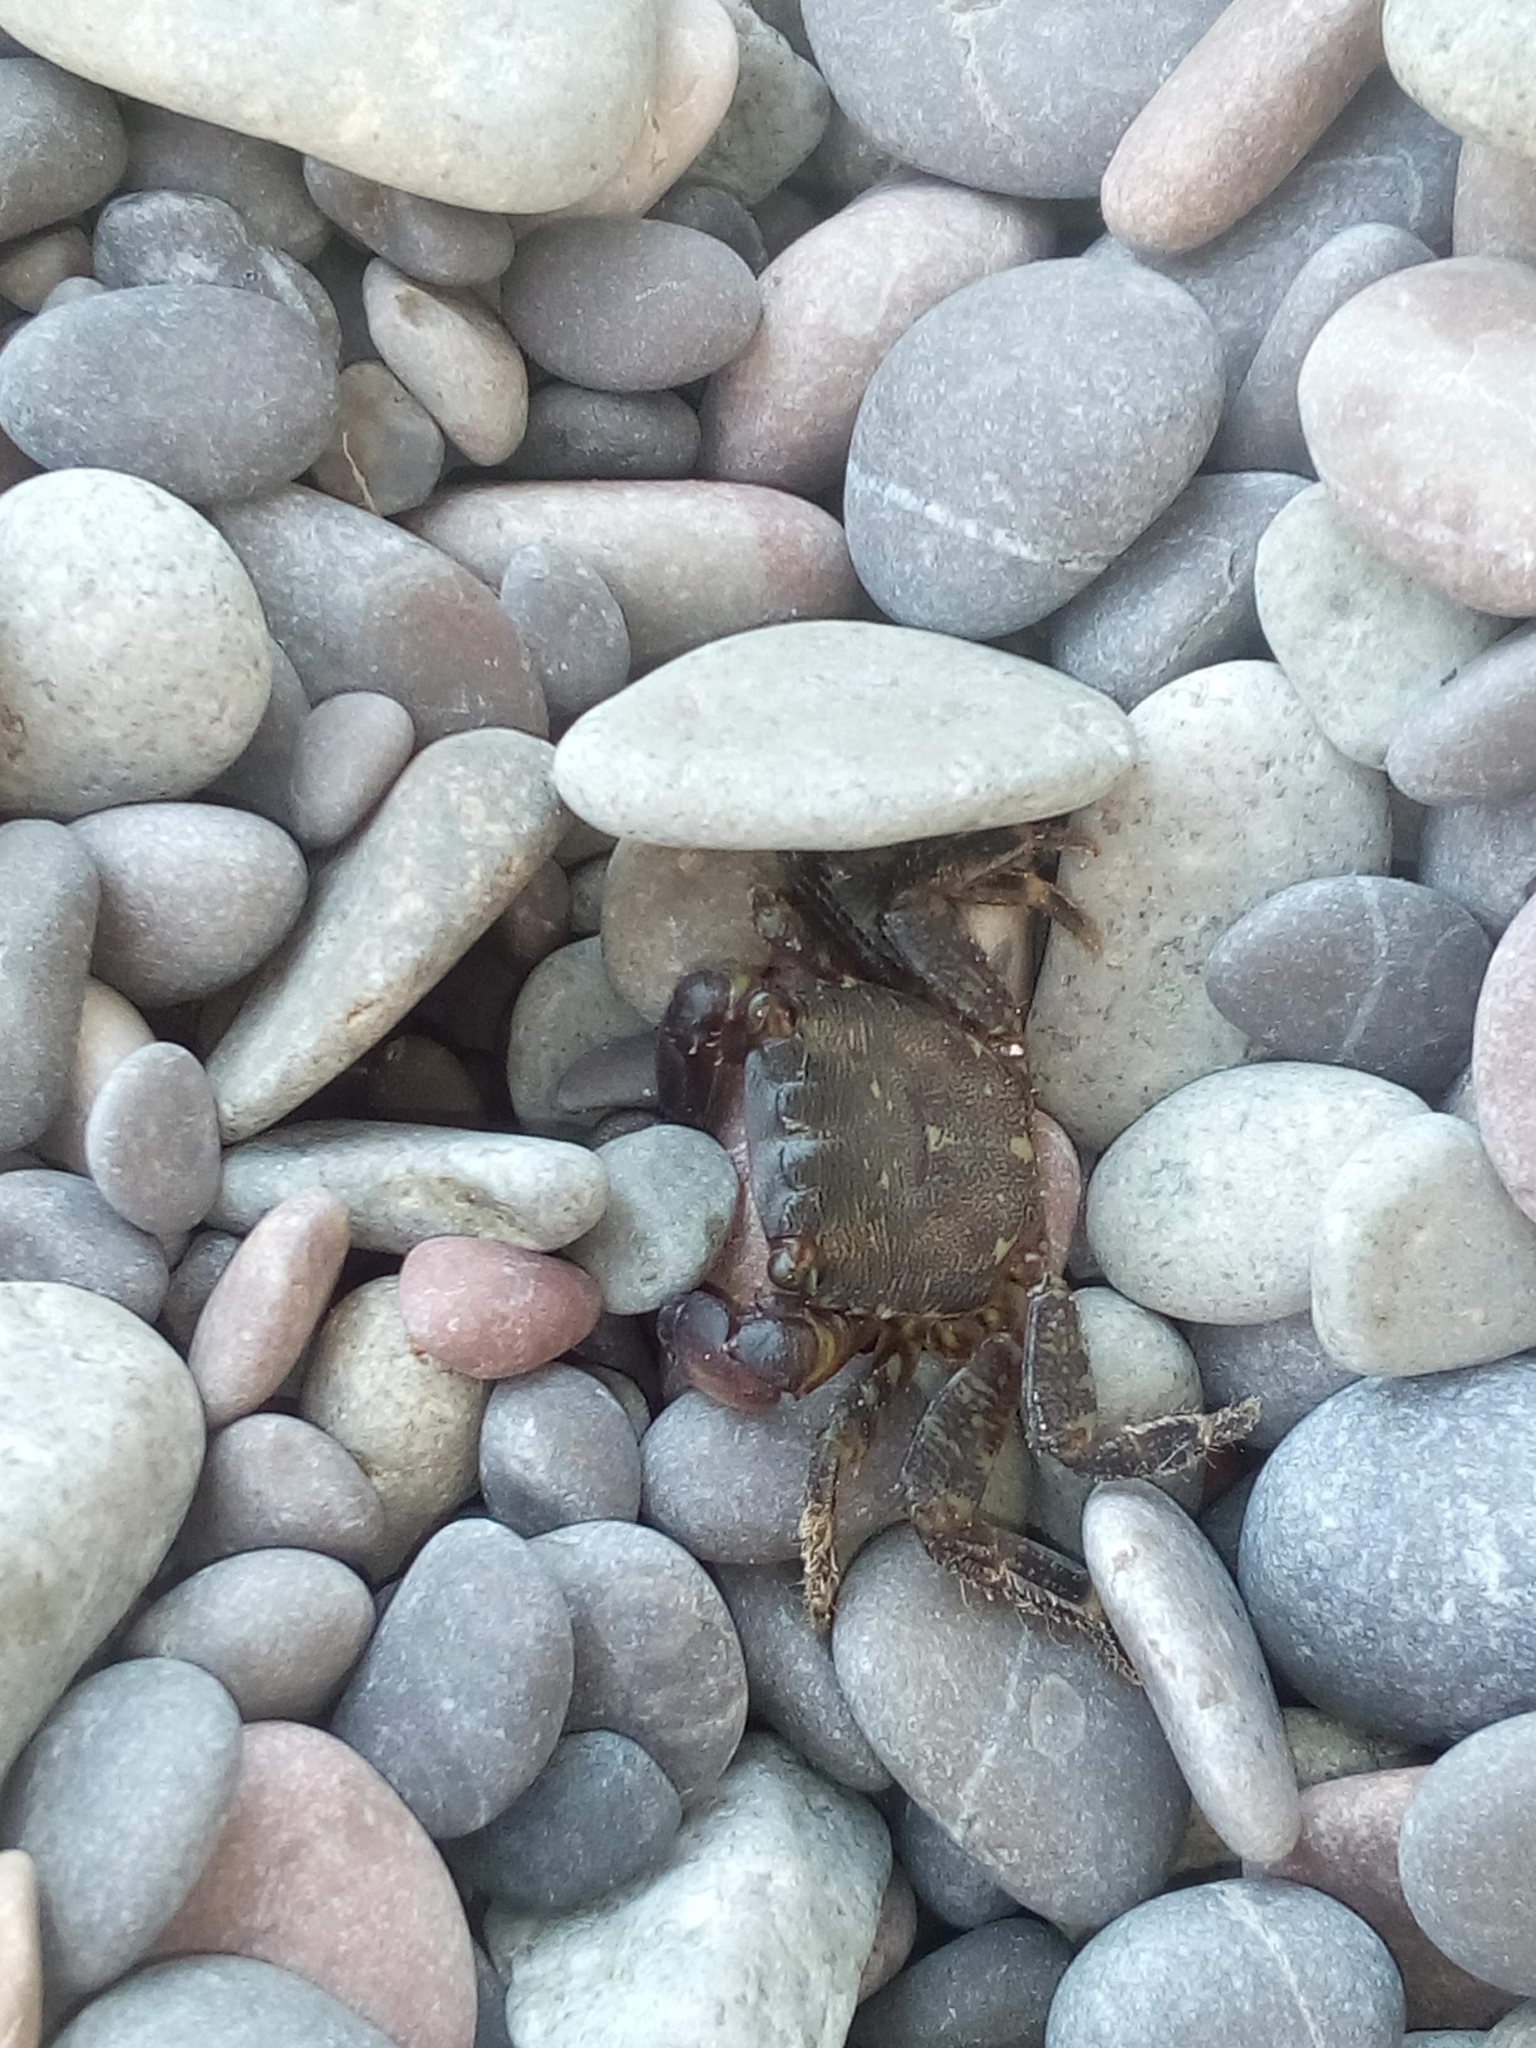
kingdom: Animalia
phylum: Arthropoda
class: Malacostraca
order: Decapoda
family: Grapsidae
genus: Pachygrapsus
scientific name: Pachygrapsus marmoratus
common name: Marbled rock crab
